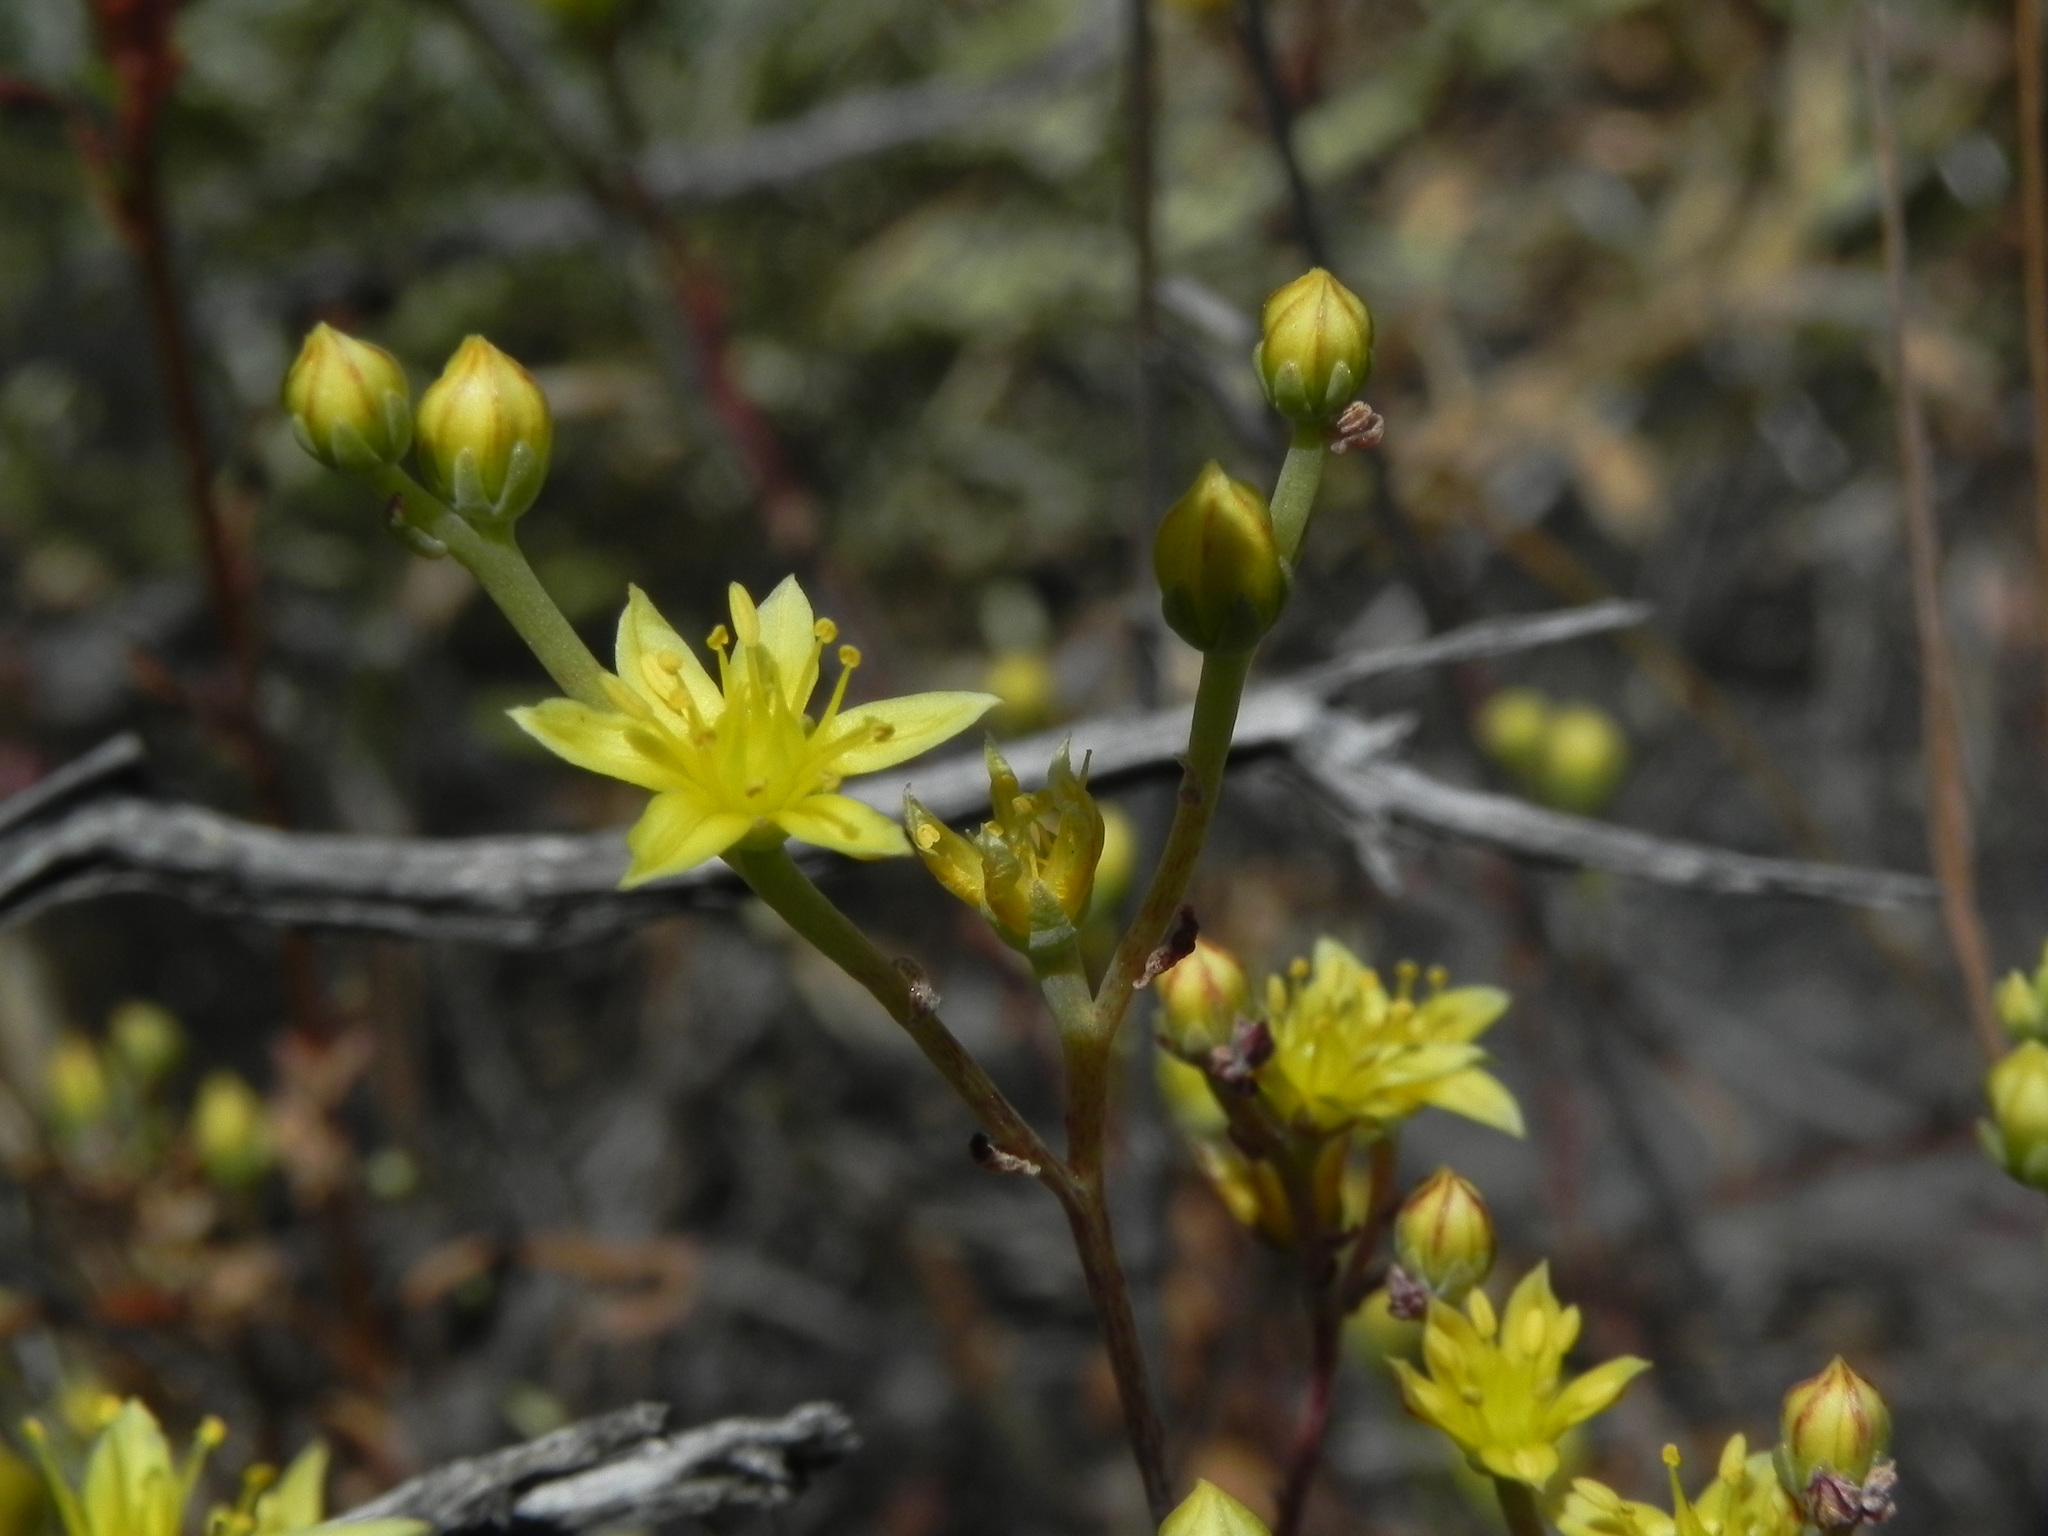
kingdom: Plantae
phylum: Tracheophyta
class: Magnoliopsida
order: Saxifragales
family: Crassulaceae
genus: Dudleya
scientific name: Dudleya variegata
